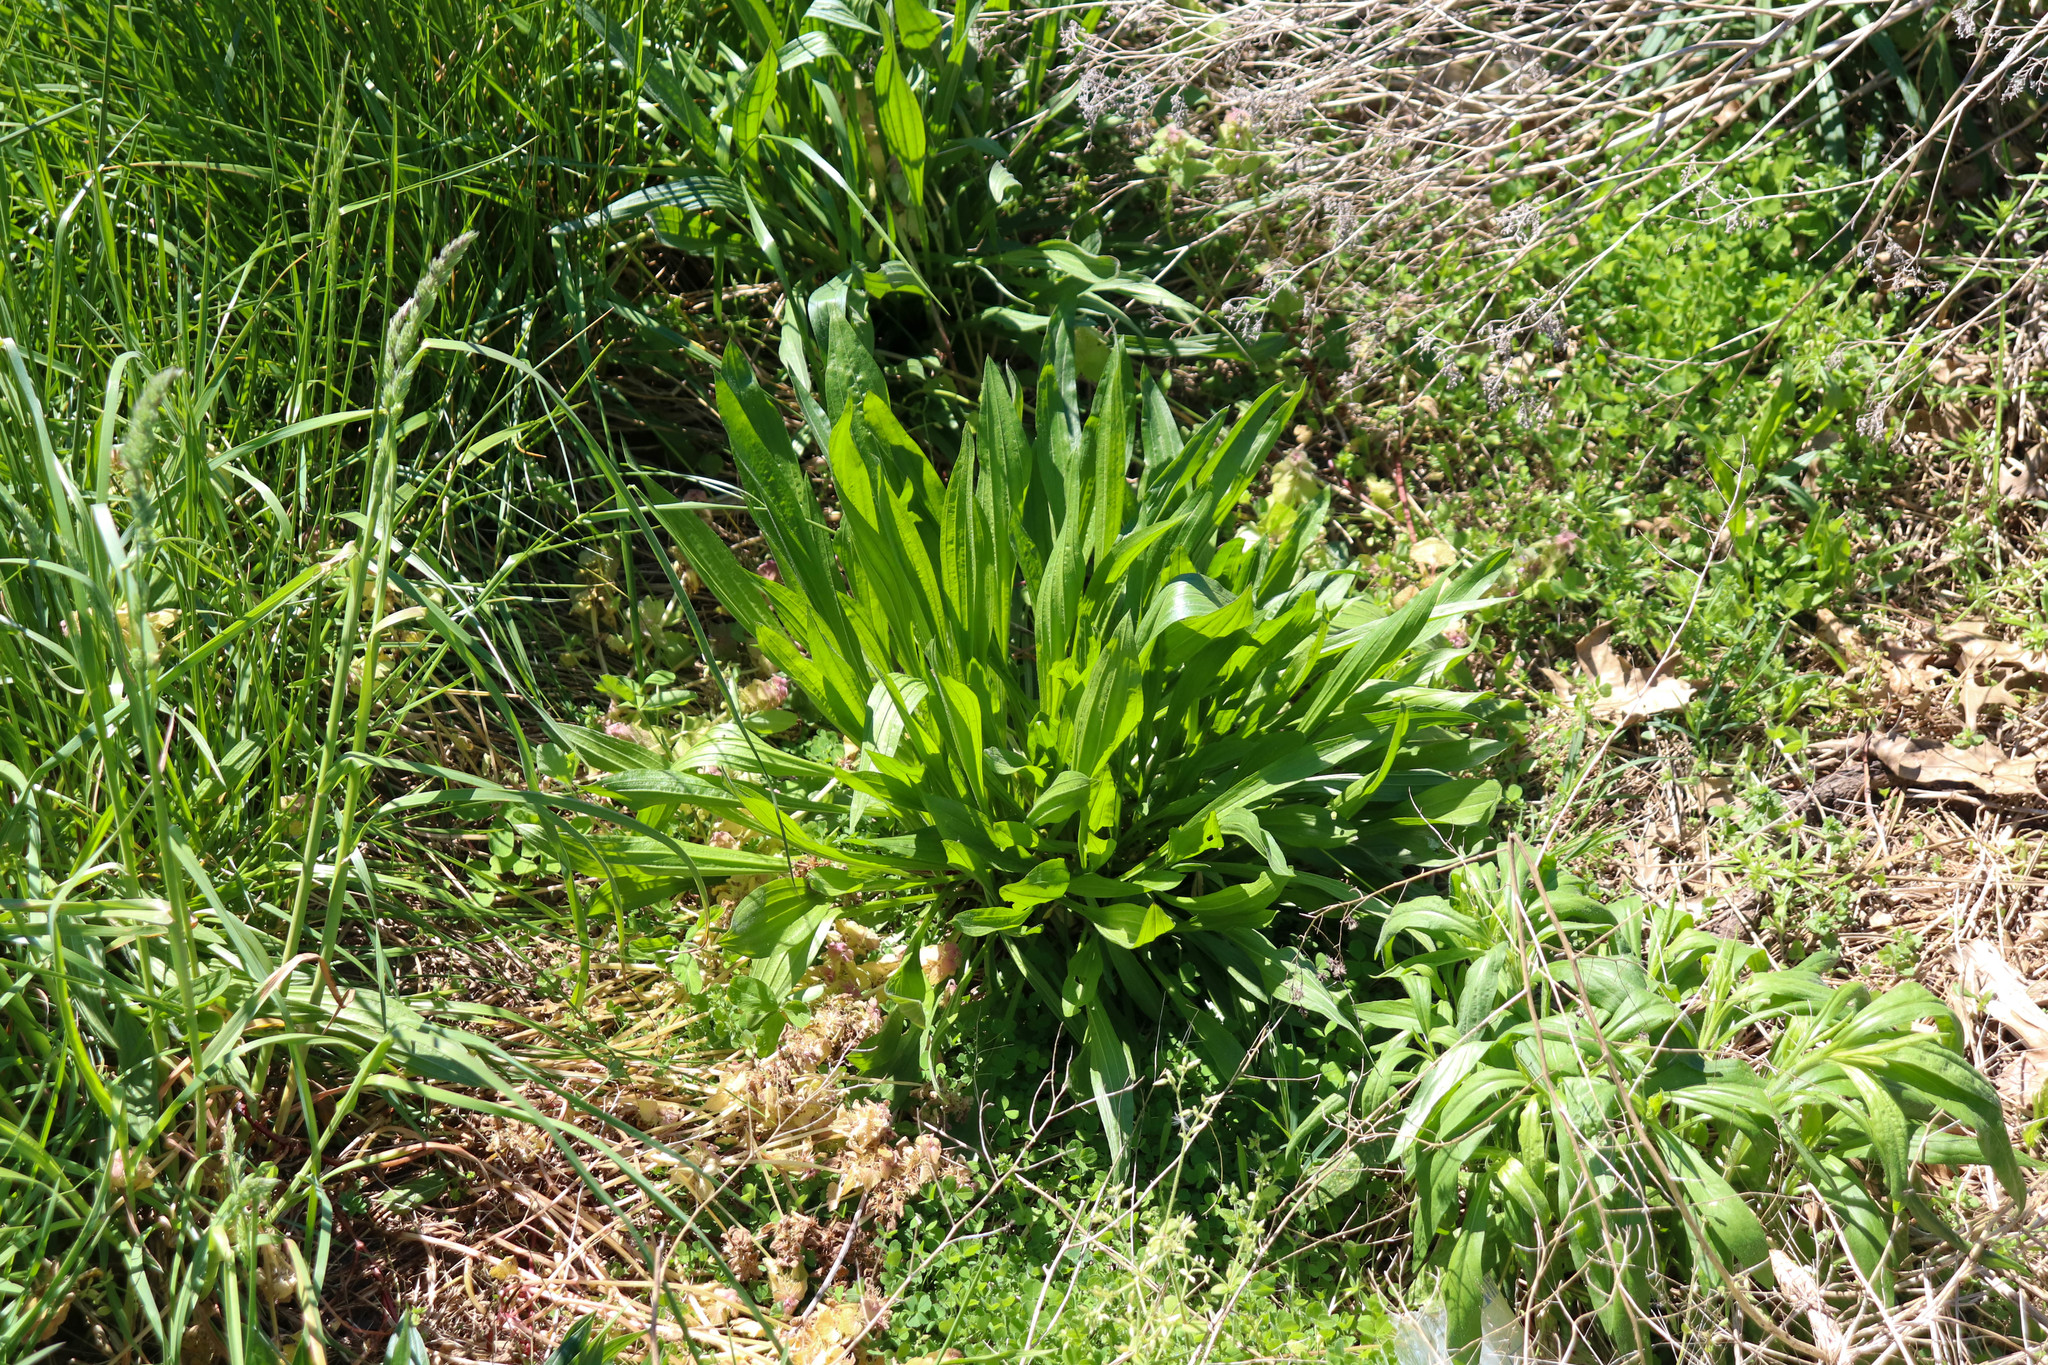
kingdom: Plantae
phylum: Tracheophyta
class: Magnoliopsida
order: Lamiales
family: Plantaginaceae
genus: Plantago
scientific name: Plantago lanceolata
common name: Ribwort plantain
